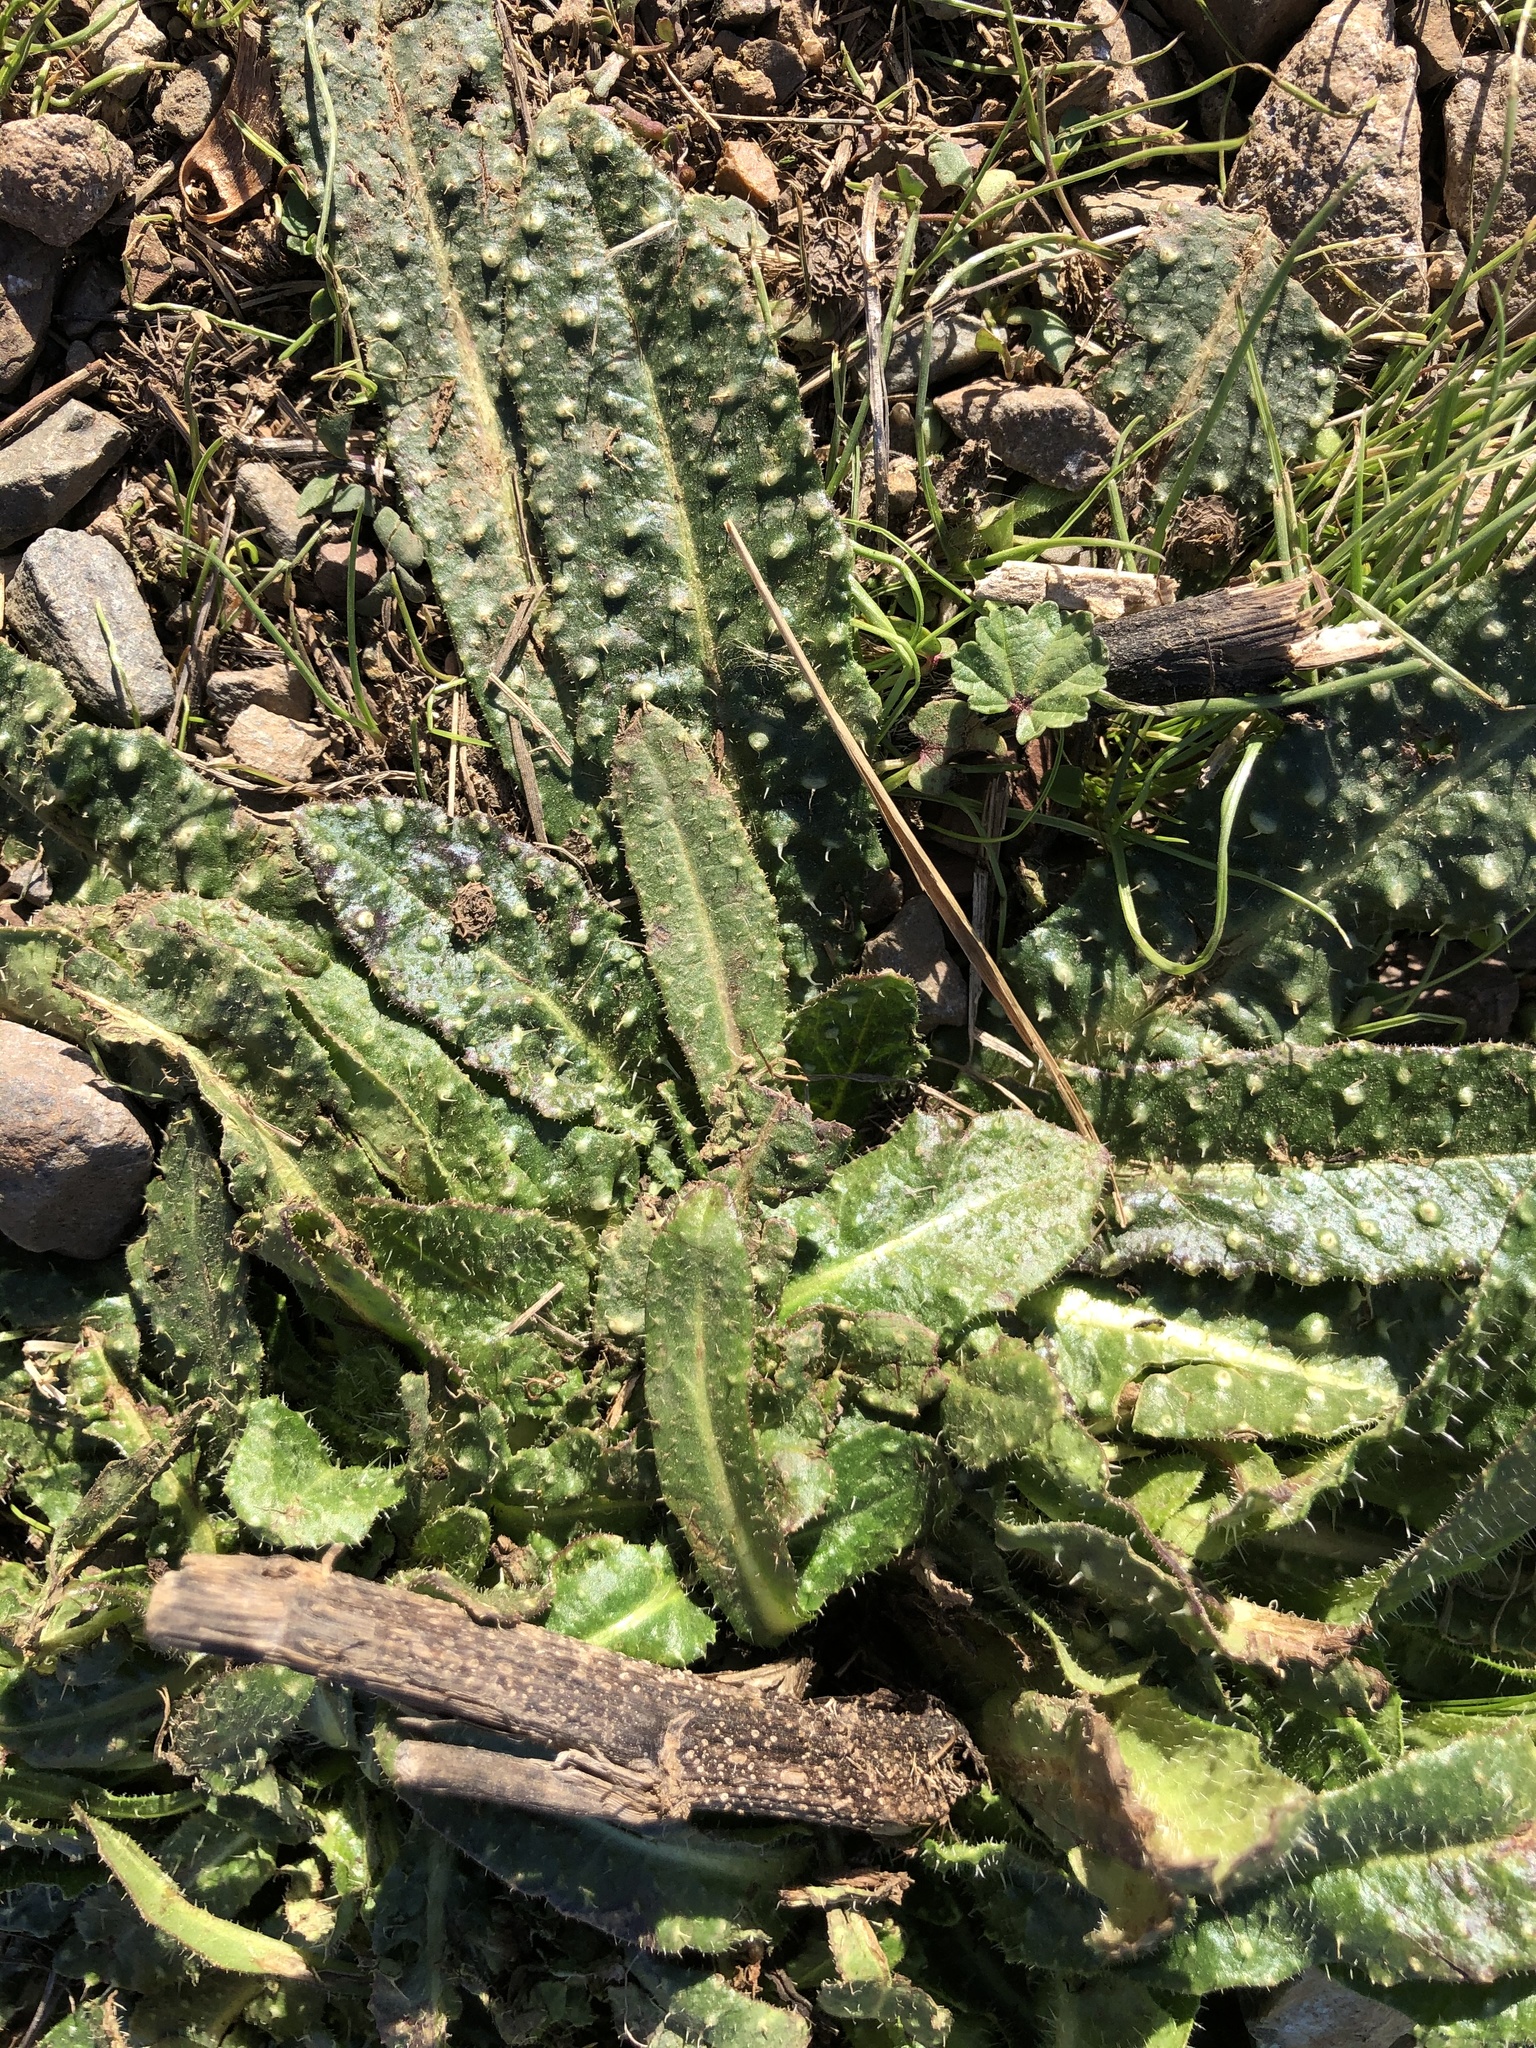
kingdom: Plantae
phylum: Tracheophyta
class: Magnoliopsida
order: Asterales
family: Asteraceae
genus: Helminthotheca
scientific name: Helminthotheca echioides
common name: Ox-tongue
